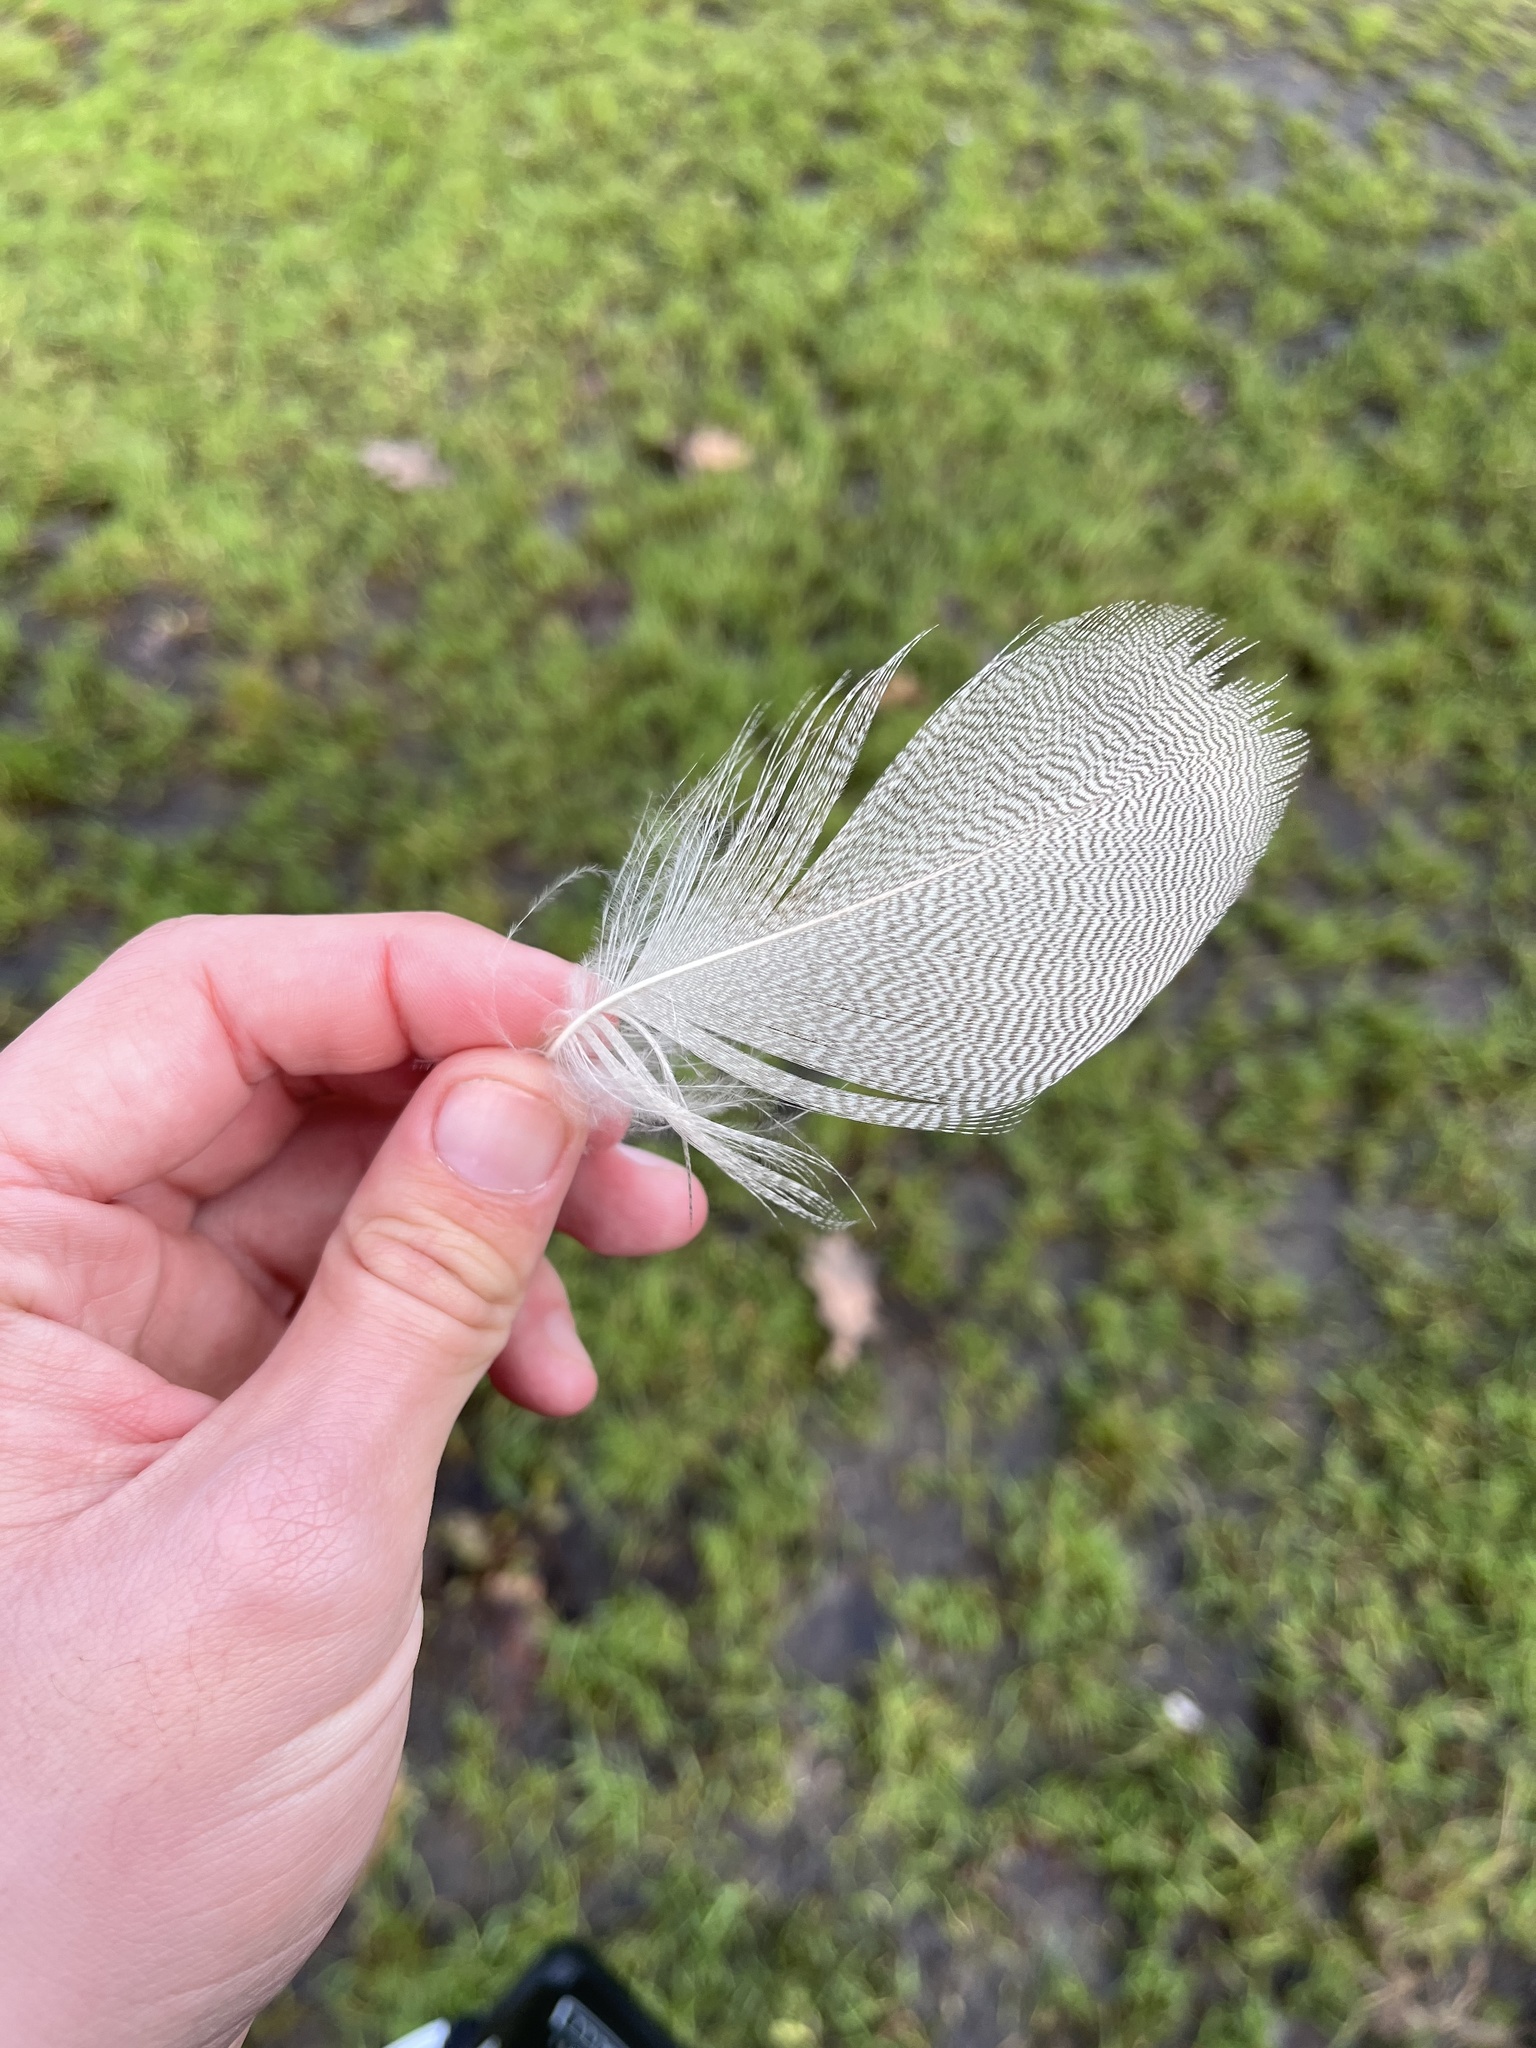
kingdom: Animalia
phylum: Chordata
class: Aves
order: Anseriformes
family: Anatidae
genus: Anas
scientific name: Anas platyrhynchos
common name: Mallard
